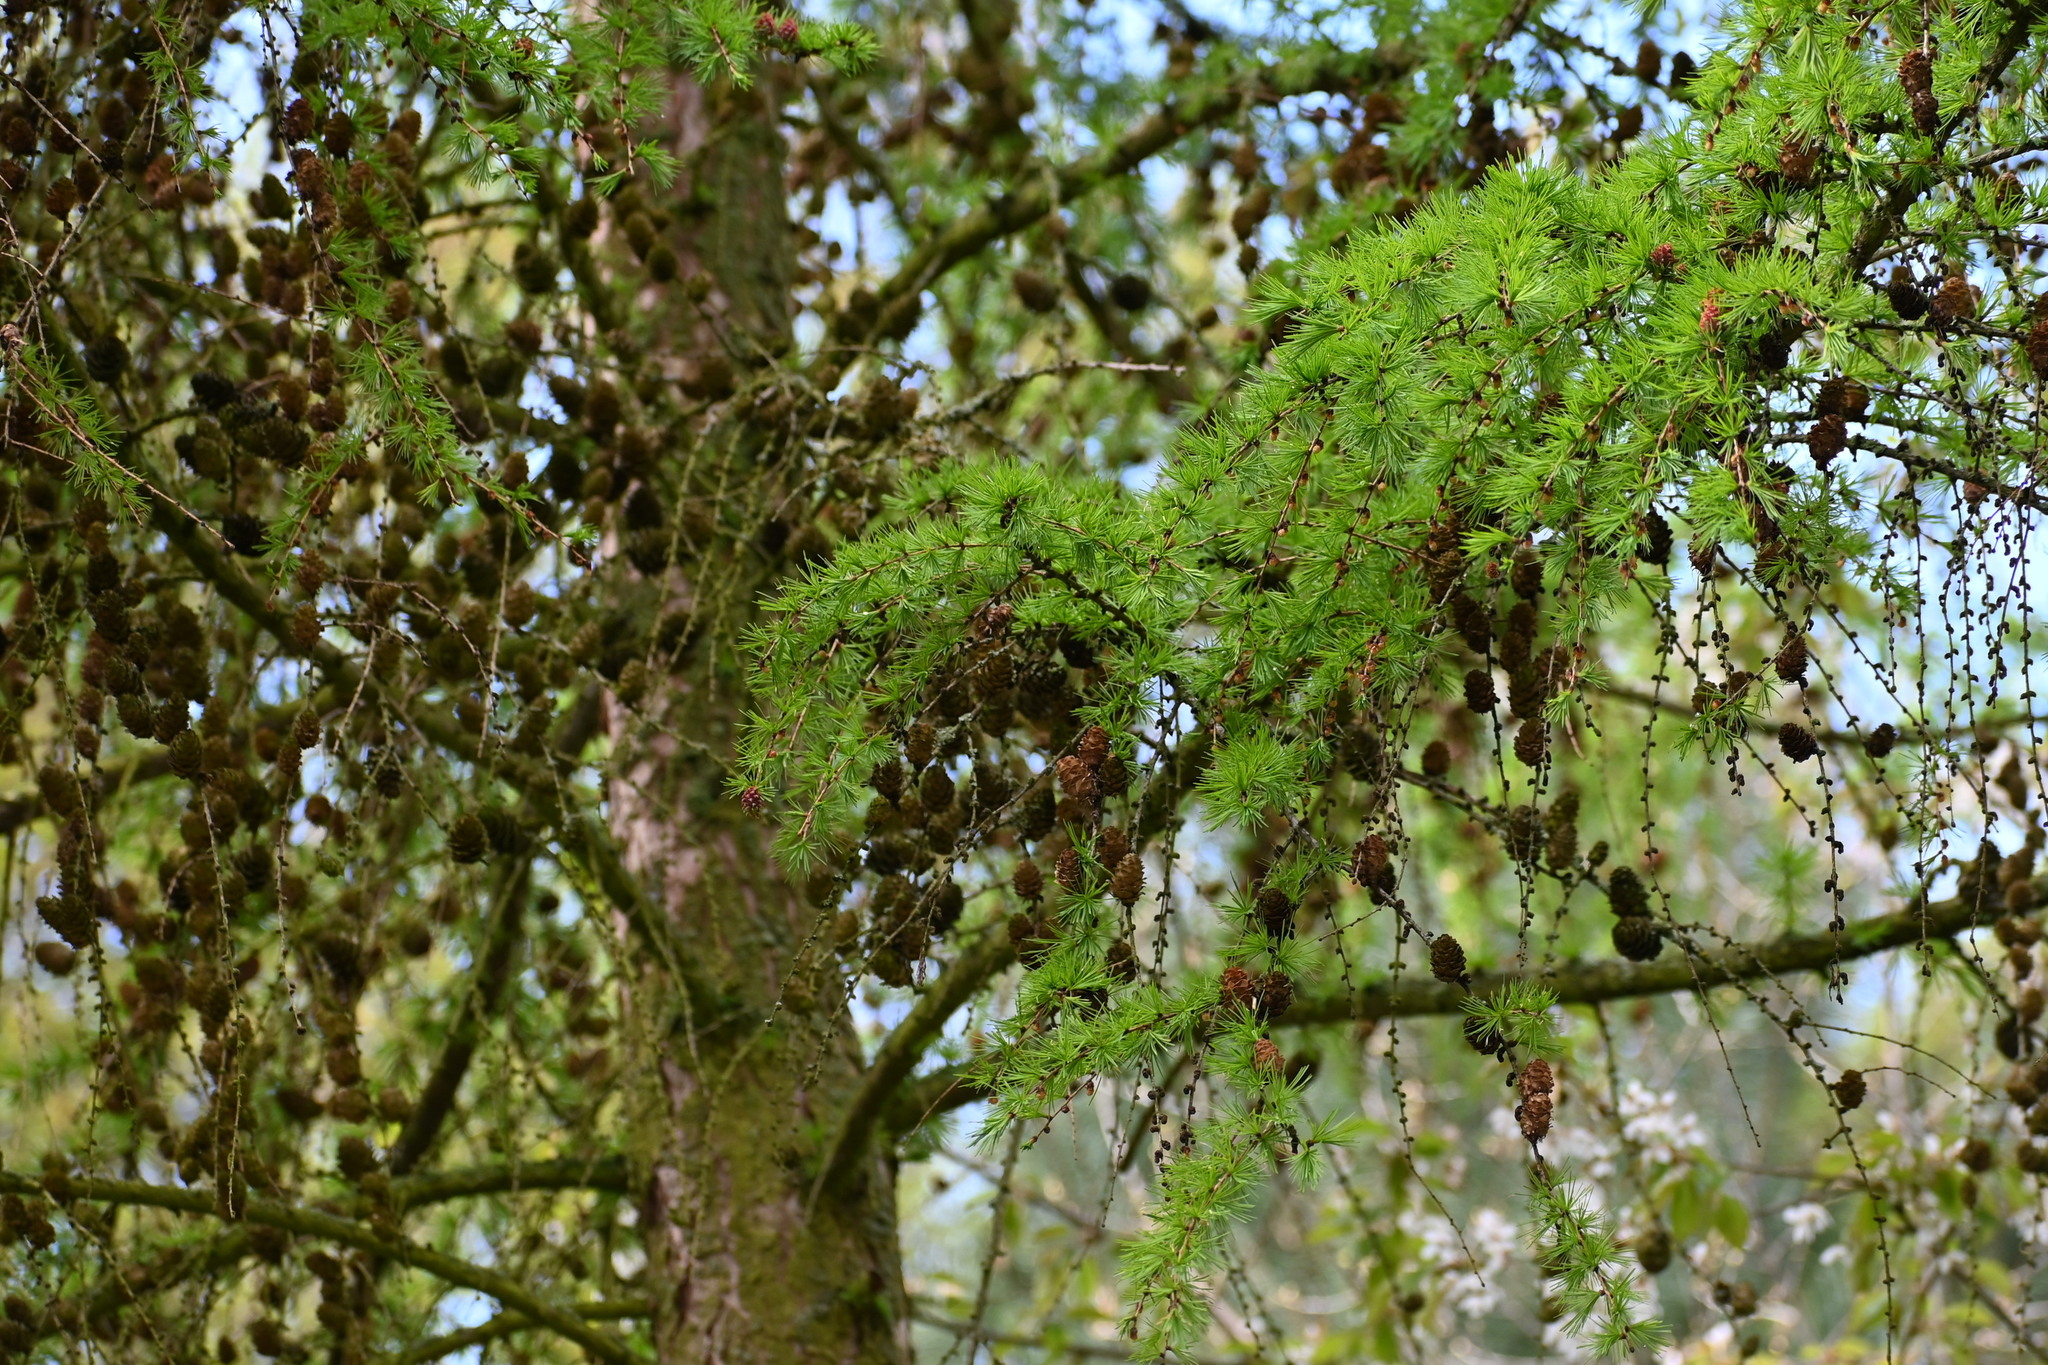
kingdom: Plantae
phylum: Tracheophyta
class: Pinopsida
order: Pinales
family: Pinaceae
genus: Larix
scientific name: Larix decidua
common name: European larch
